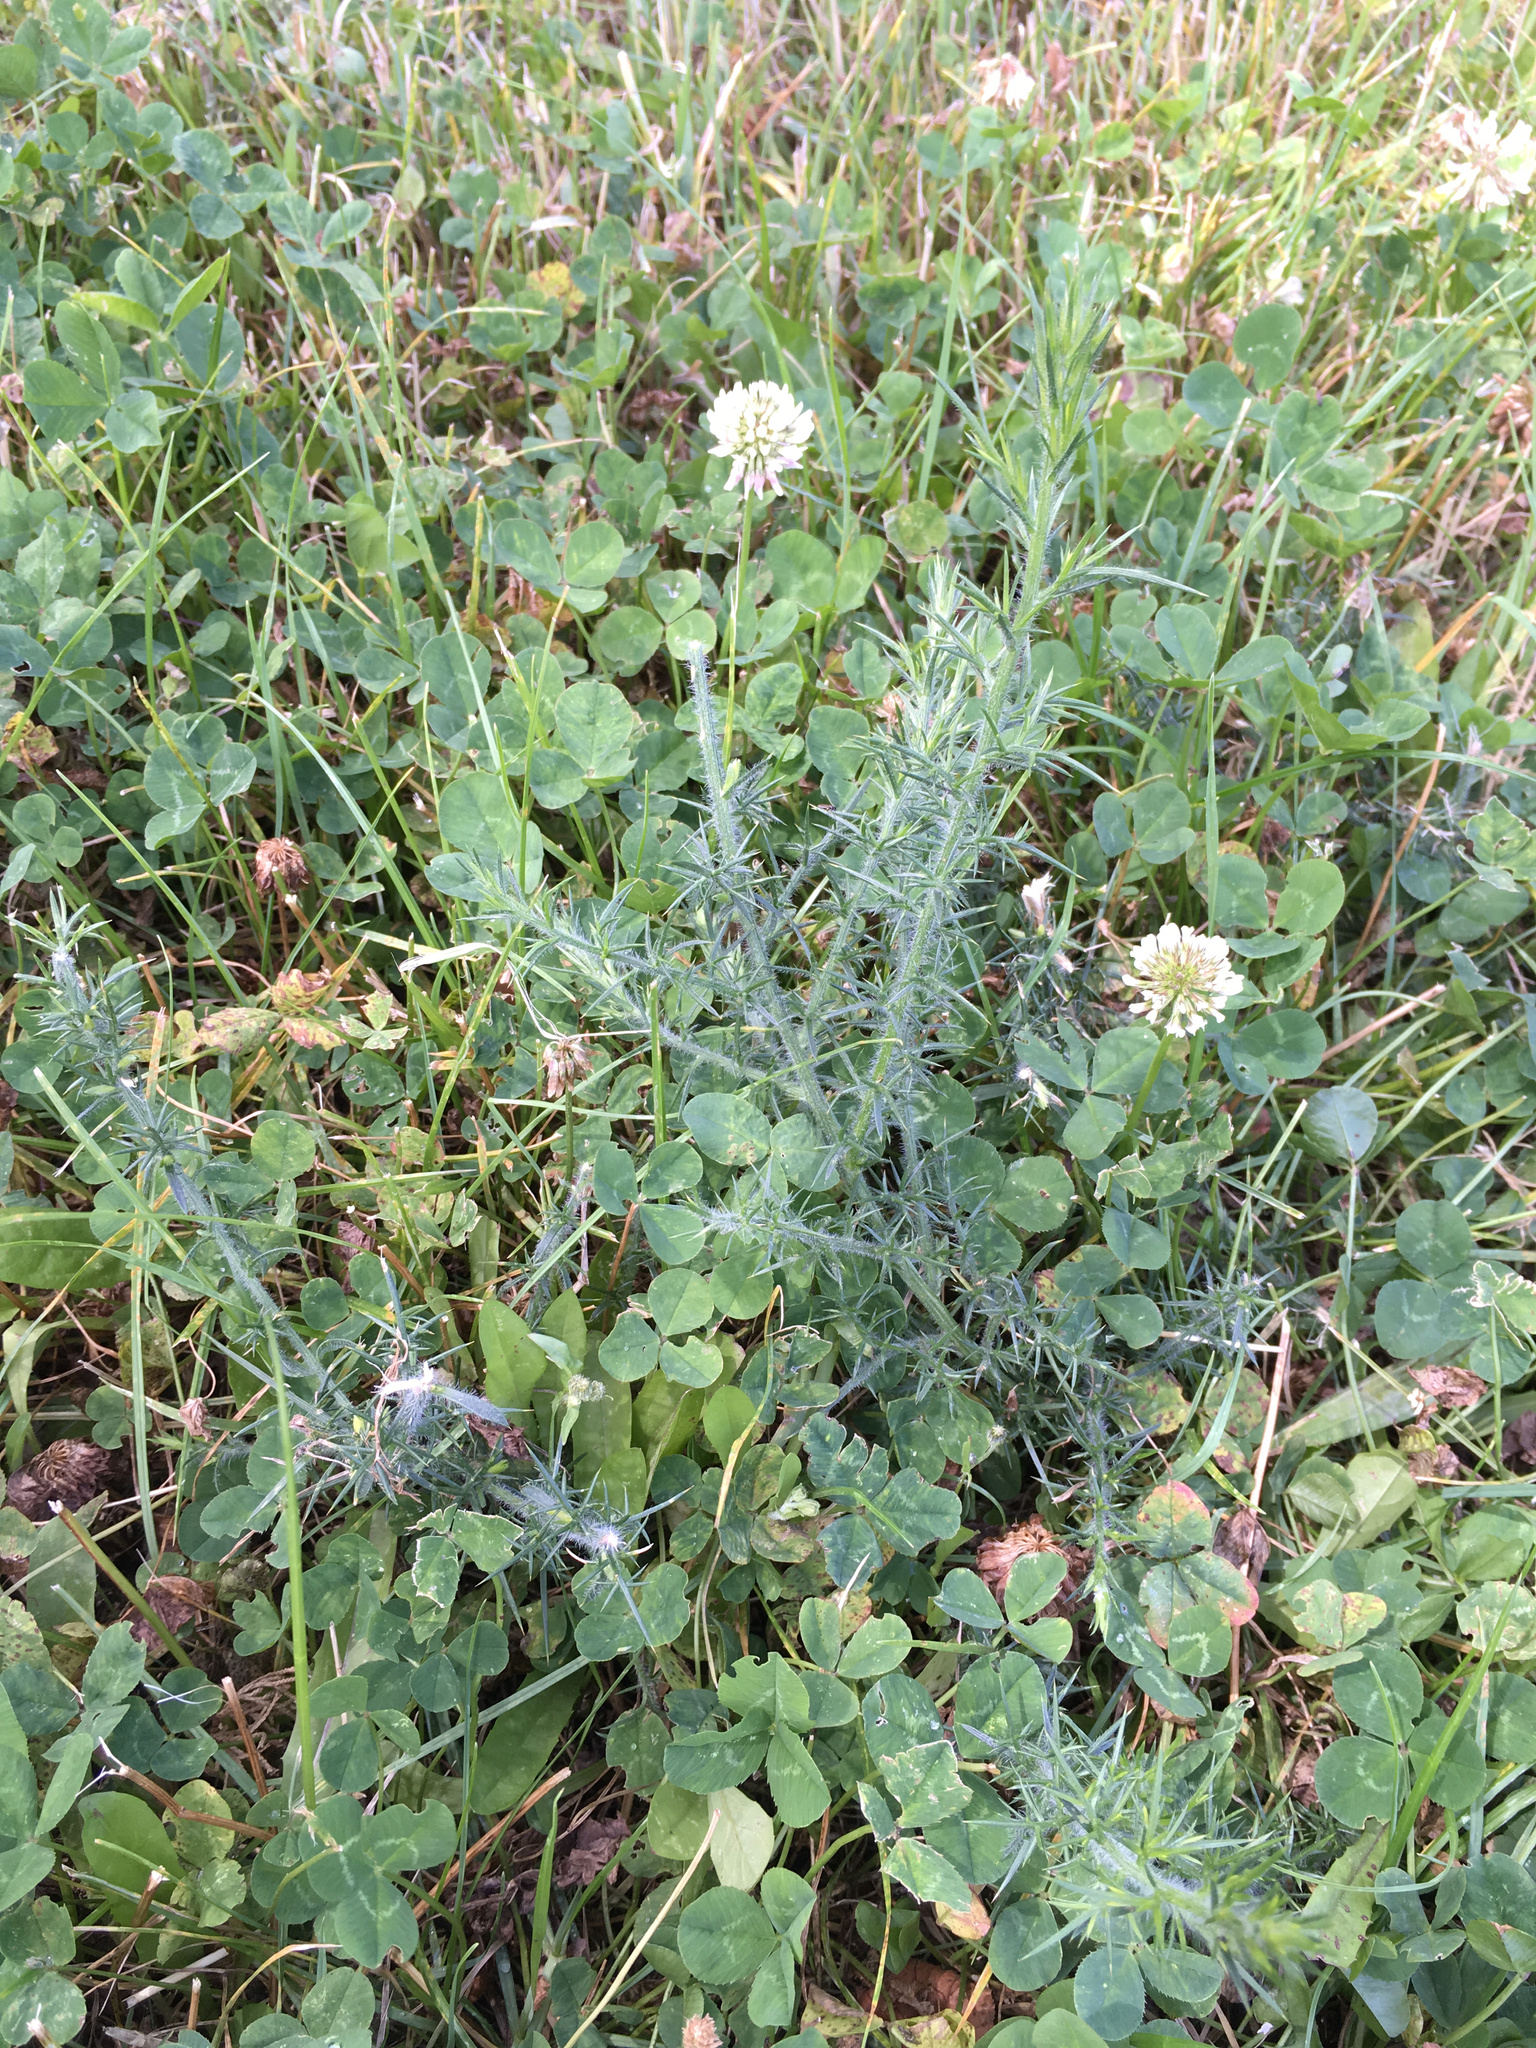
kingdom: Plantae
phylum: Tracheophyta
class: Magnoliopsida
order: Fabales
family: Fabaceae
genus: Ulex
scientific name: Ulex europaeus
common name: Common gorse
